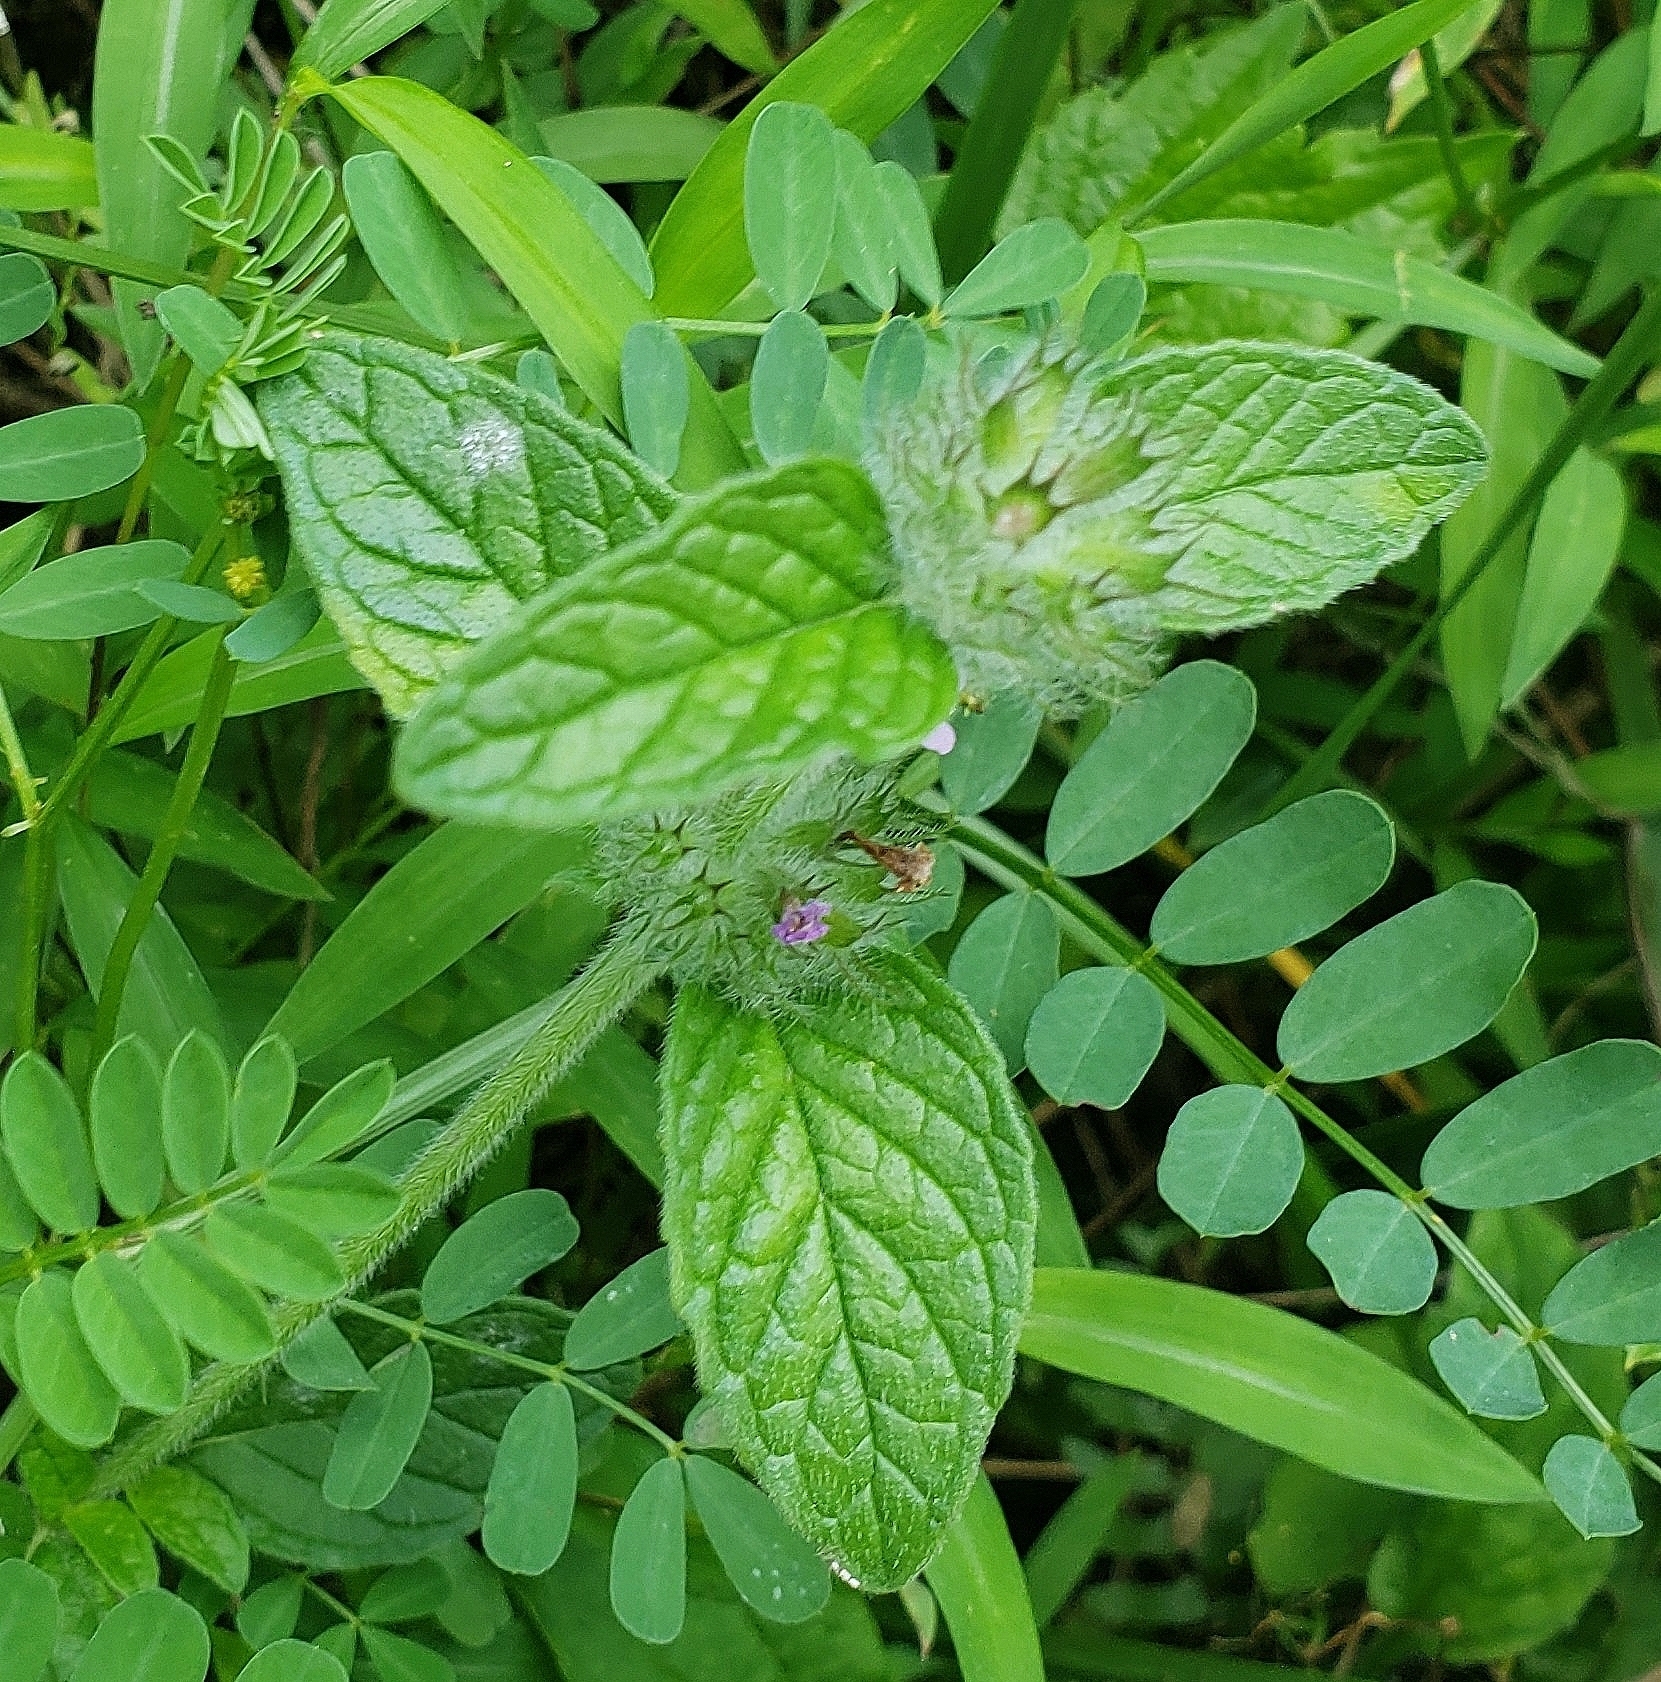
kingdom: Plantae
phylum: Tracheophyta
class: Magnoliopsida
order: Lamiales
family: Lamiaceae
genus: Clinopodium
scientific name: Clinopodium vulgare
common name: Wild basil
